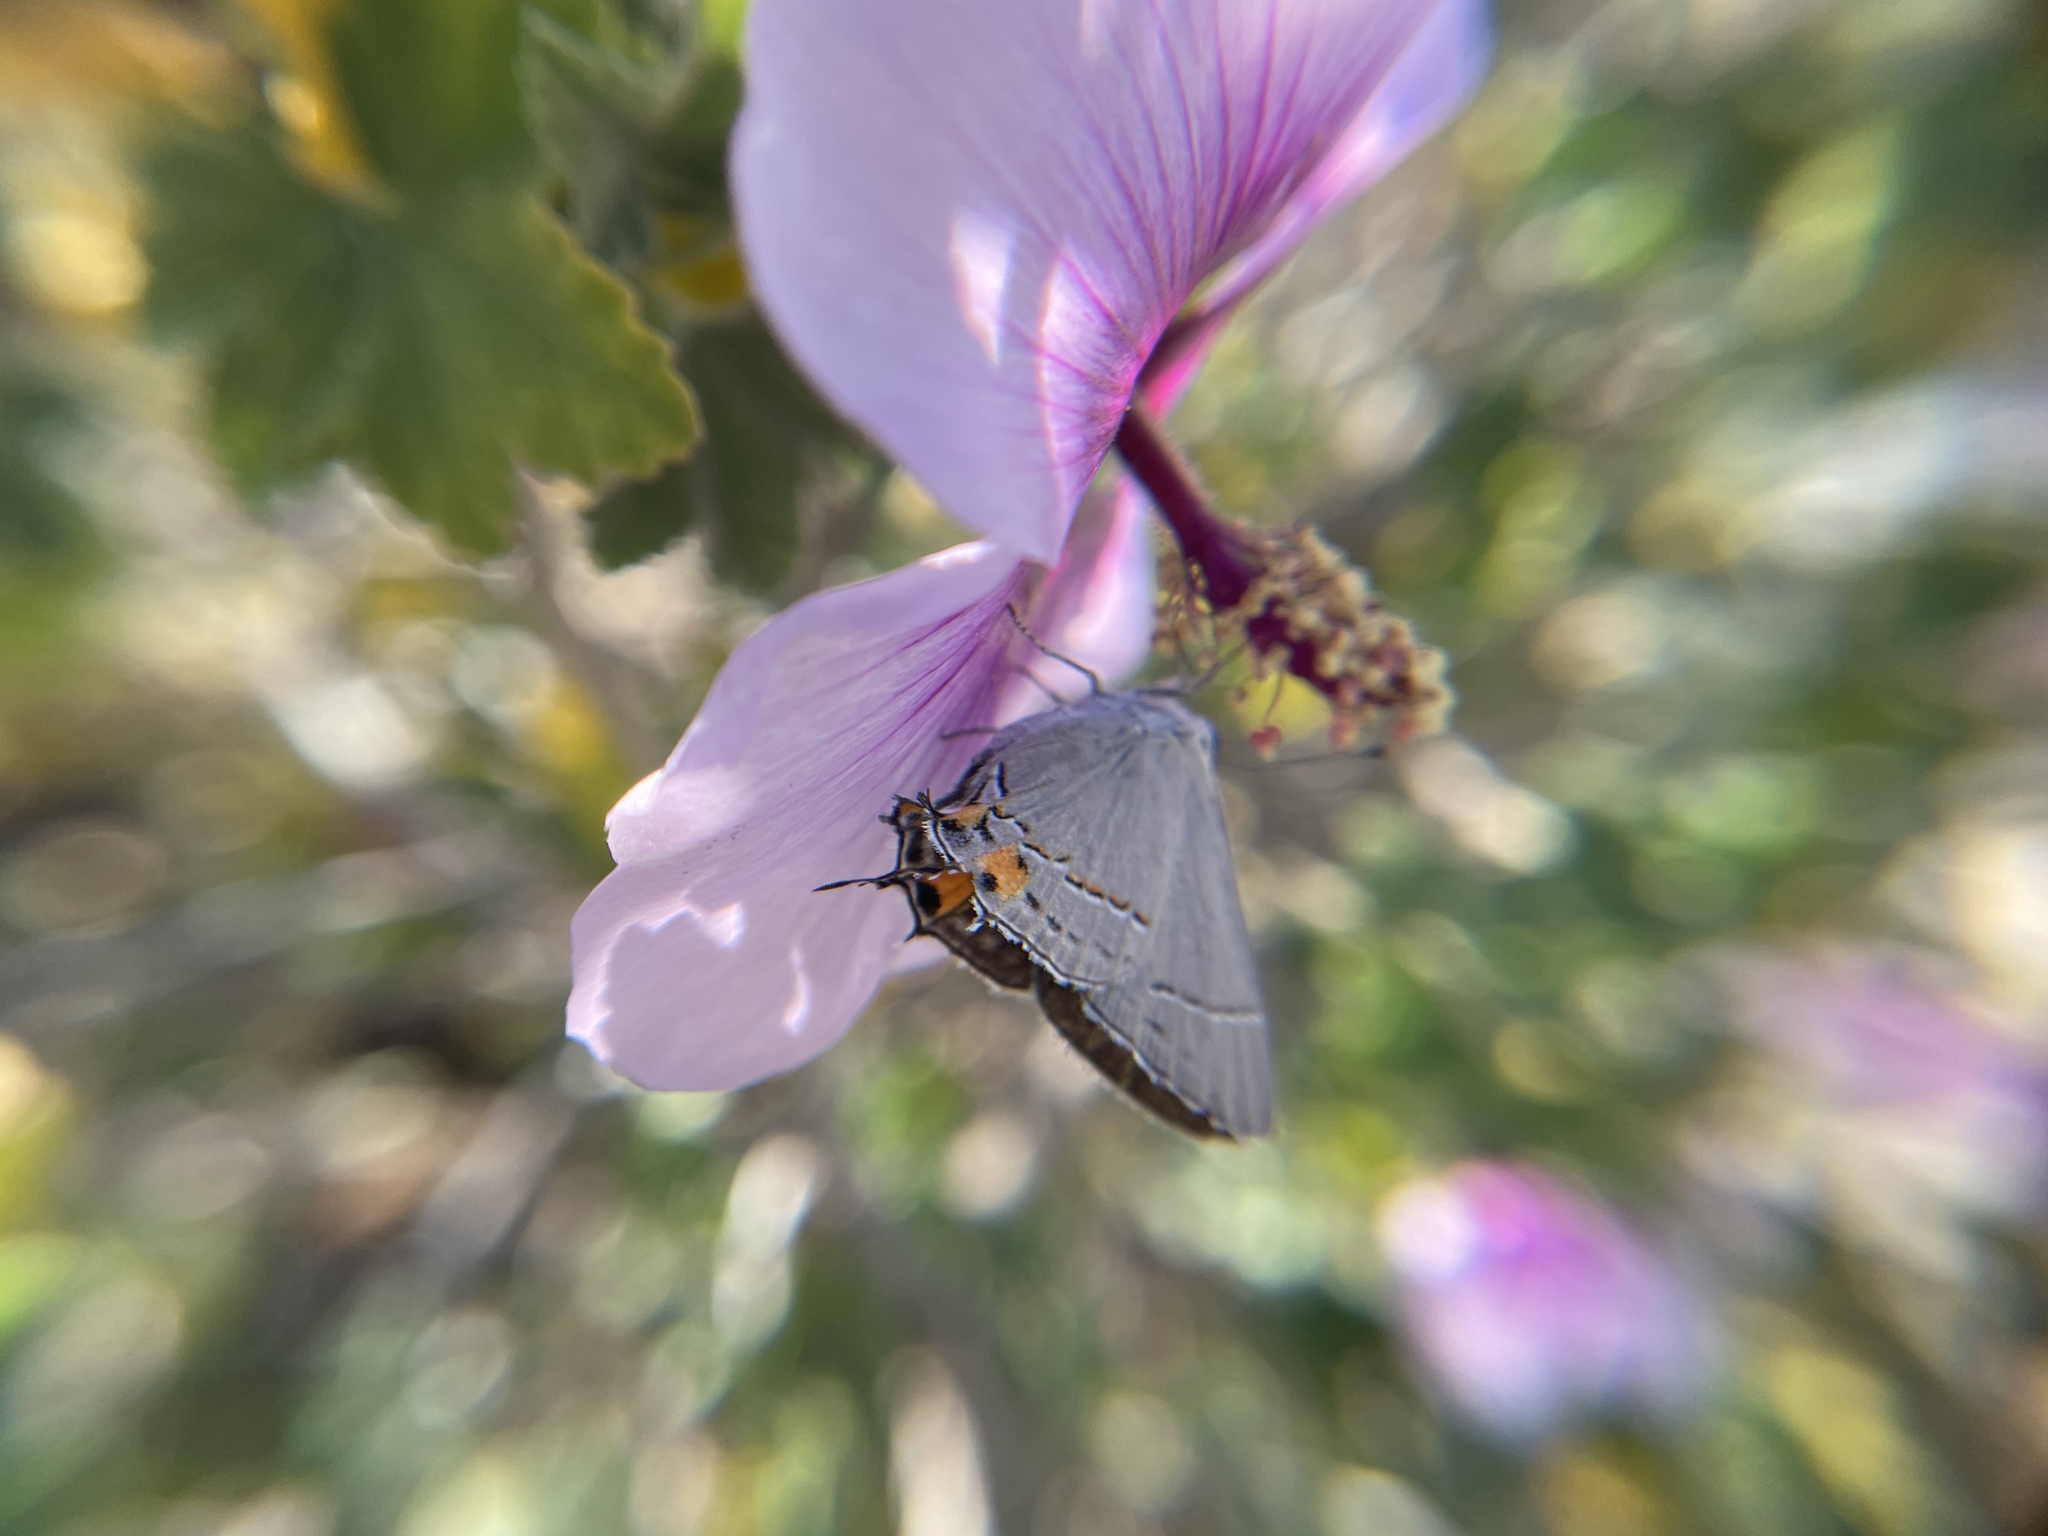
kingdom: Animalia
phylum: Arthropoda
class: Insecta
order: Lepidoptera
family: Lycaenidae
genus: Strymon
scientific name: Strymon melinus
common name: Gray hairstreak
